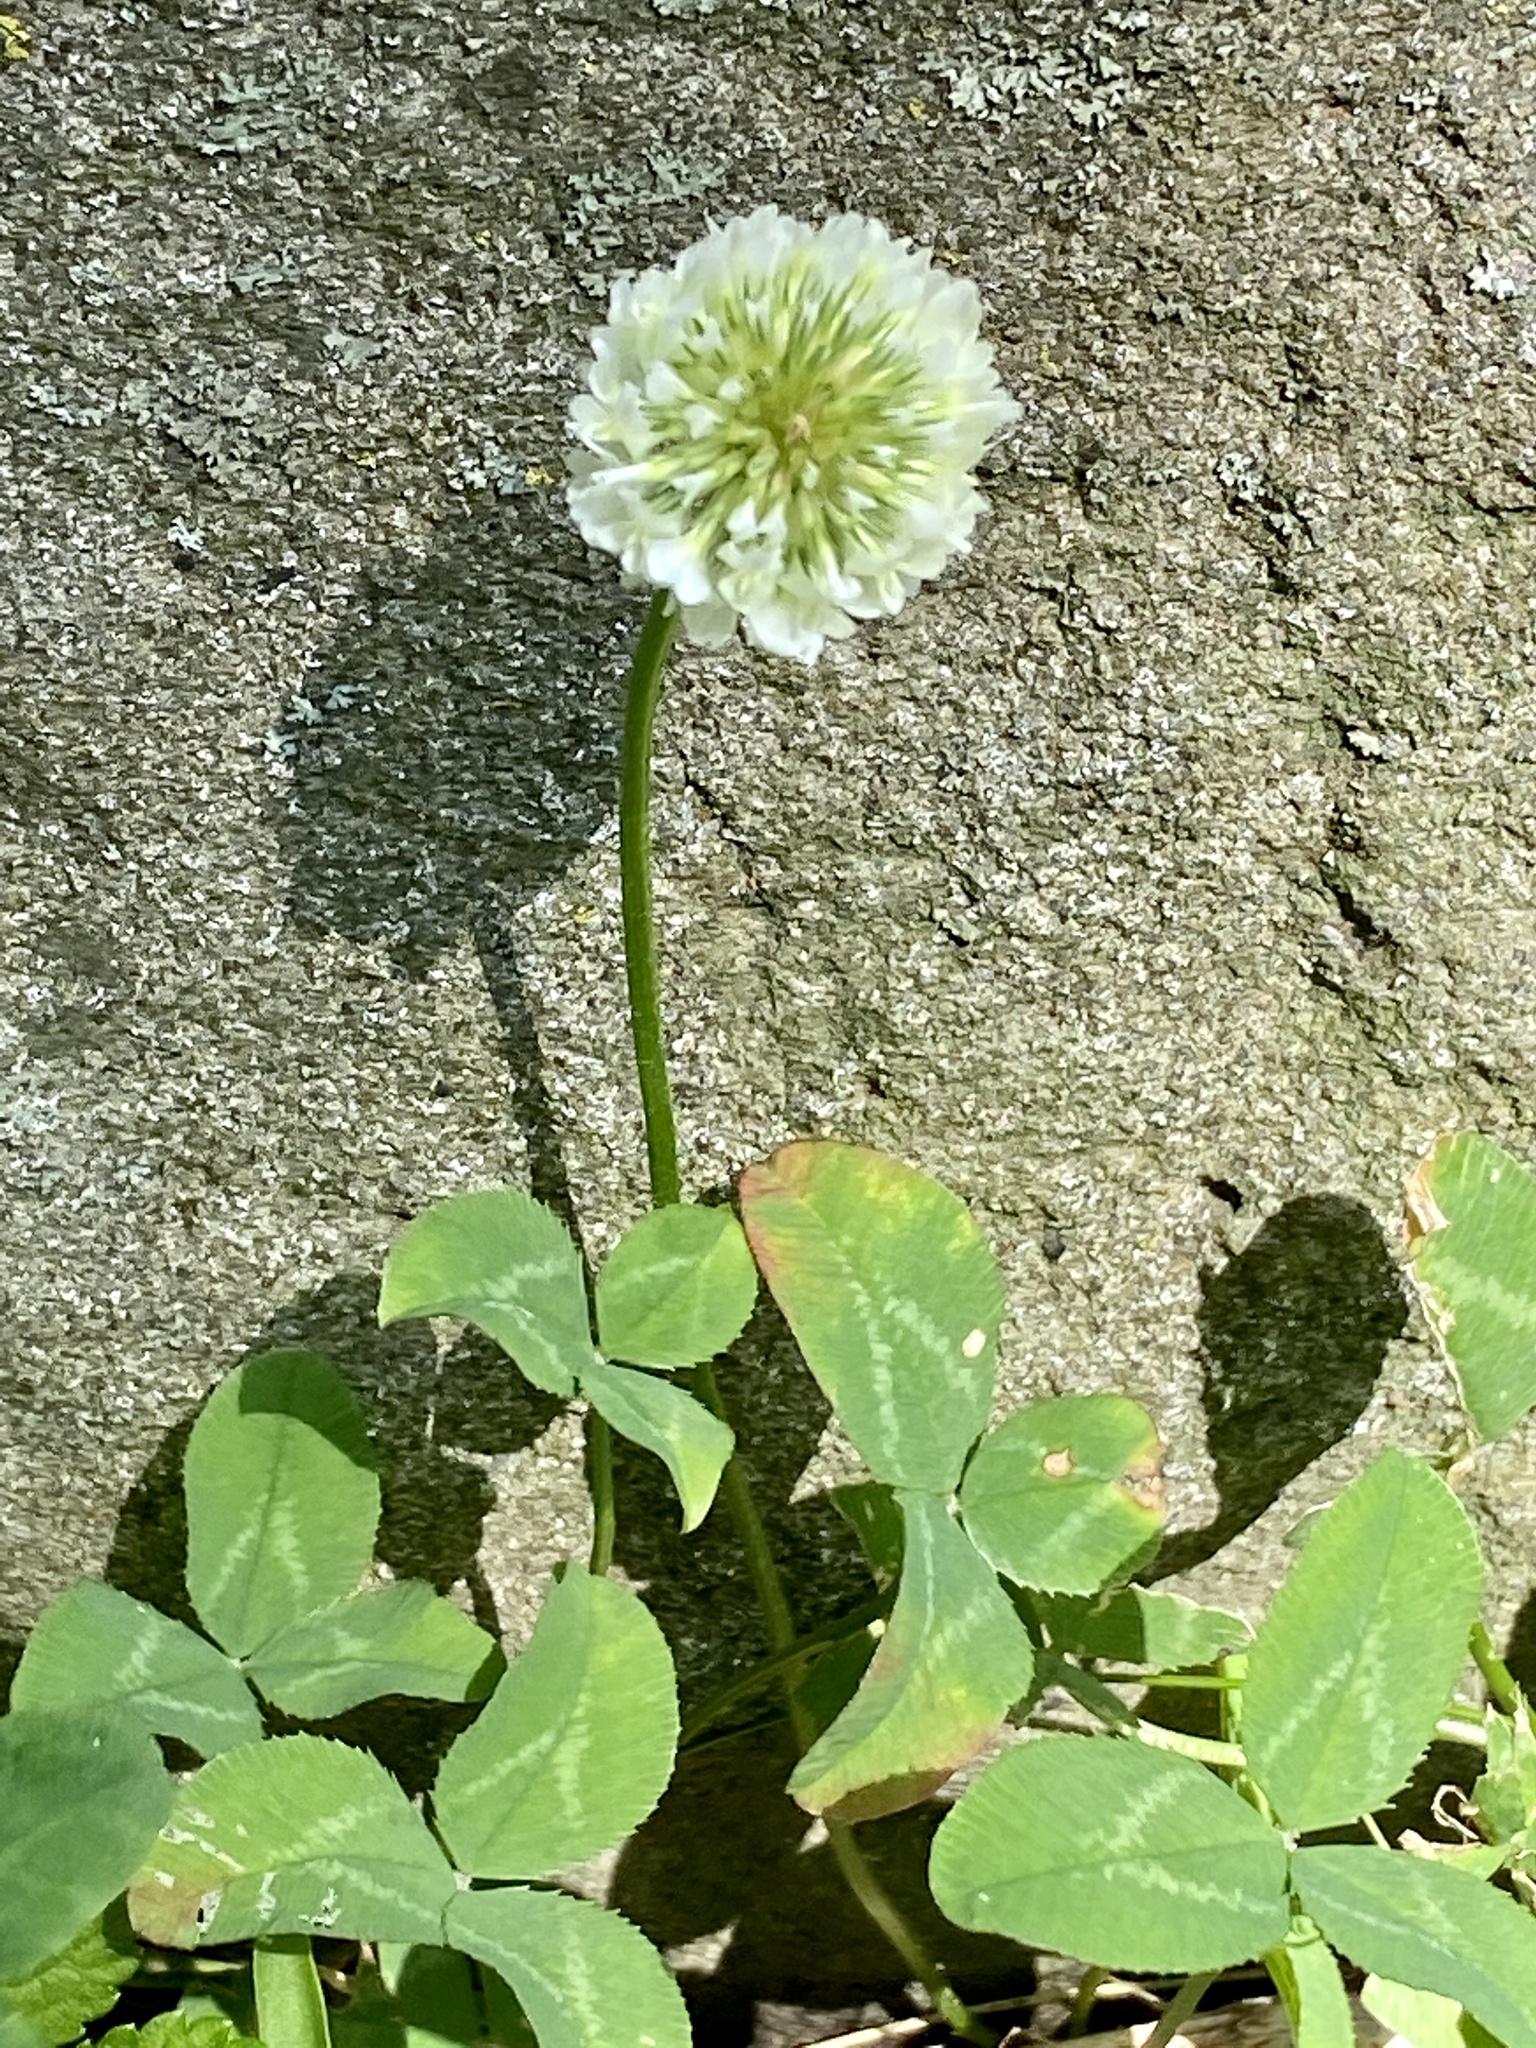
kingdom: Plantae
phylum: Tracheophyta
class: Magnoliopsida
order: Fabales
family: Fabaceae
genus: Trifolium
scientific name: Trifolium repens
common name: White clover
